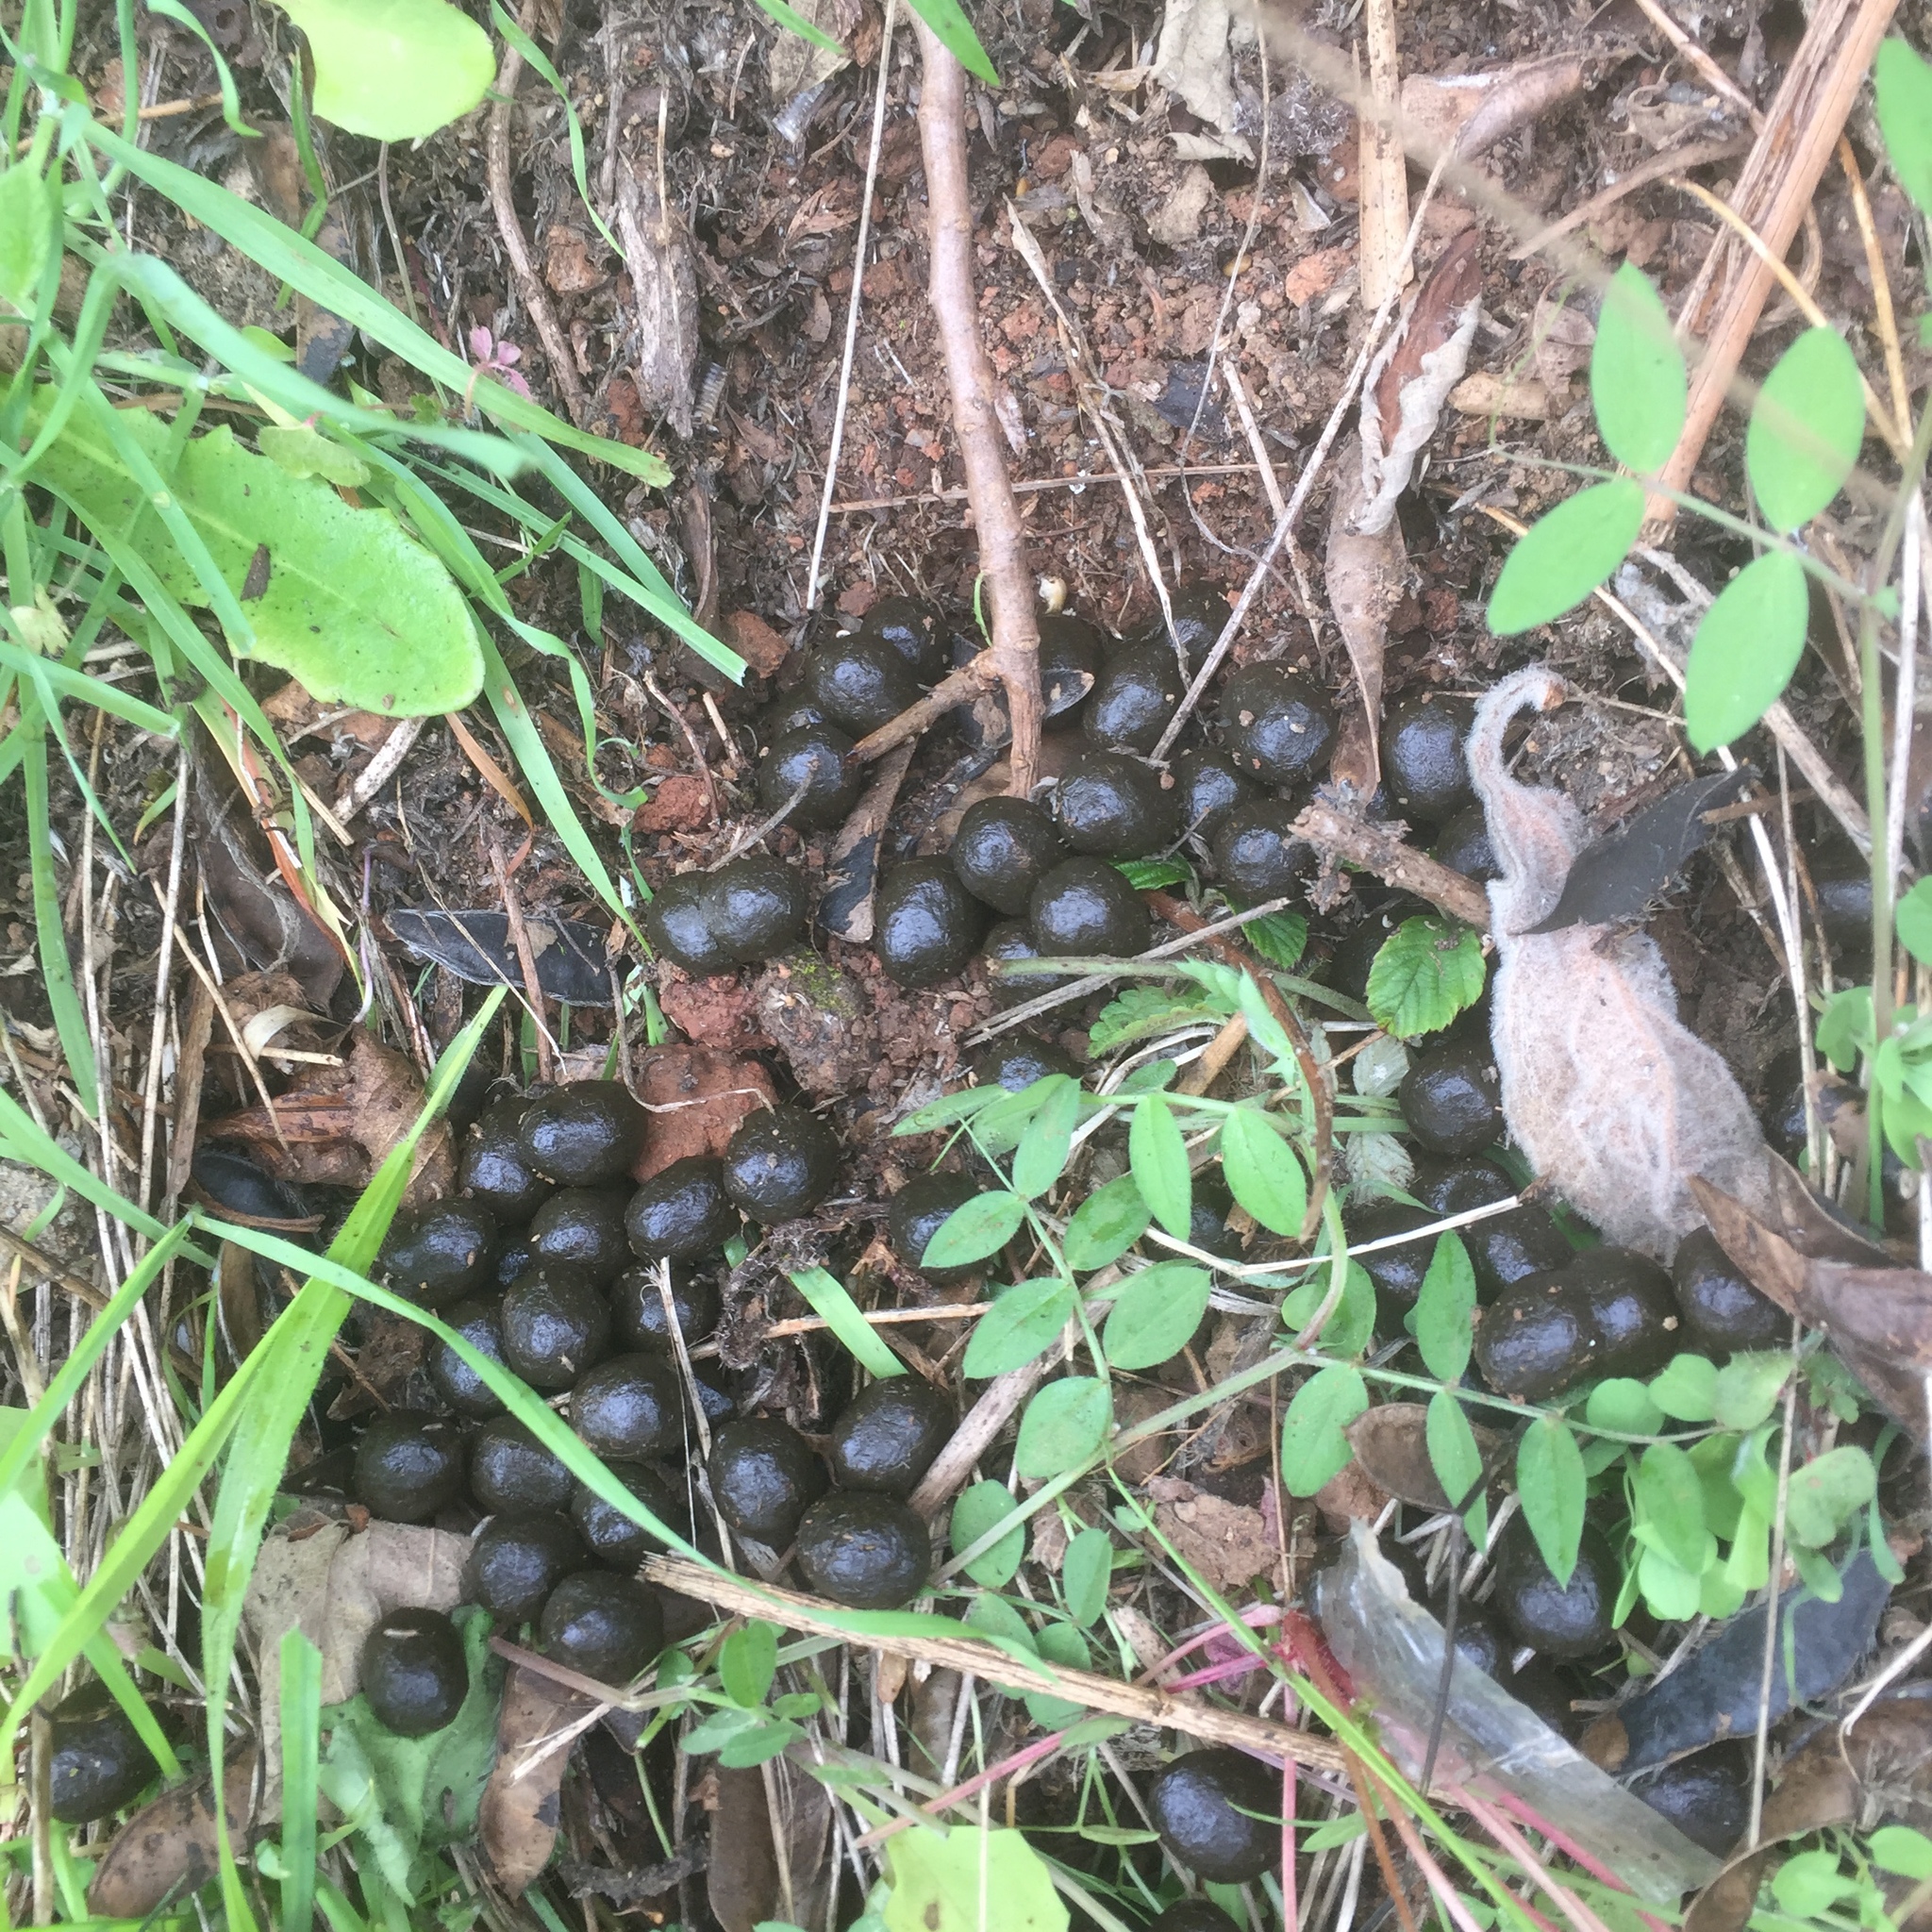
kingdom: Animalia
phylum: Chordata
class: Mammalia
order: Lagomorpha
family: Leporidae
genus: Oryctolagus
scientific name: Oryctolagus cuniculus
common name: European rabbit
